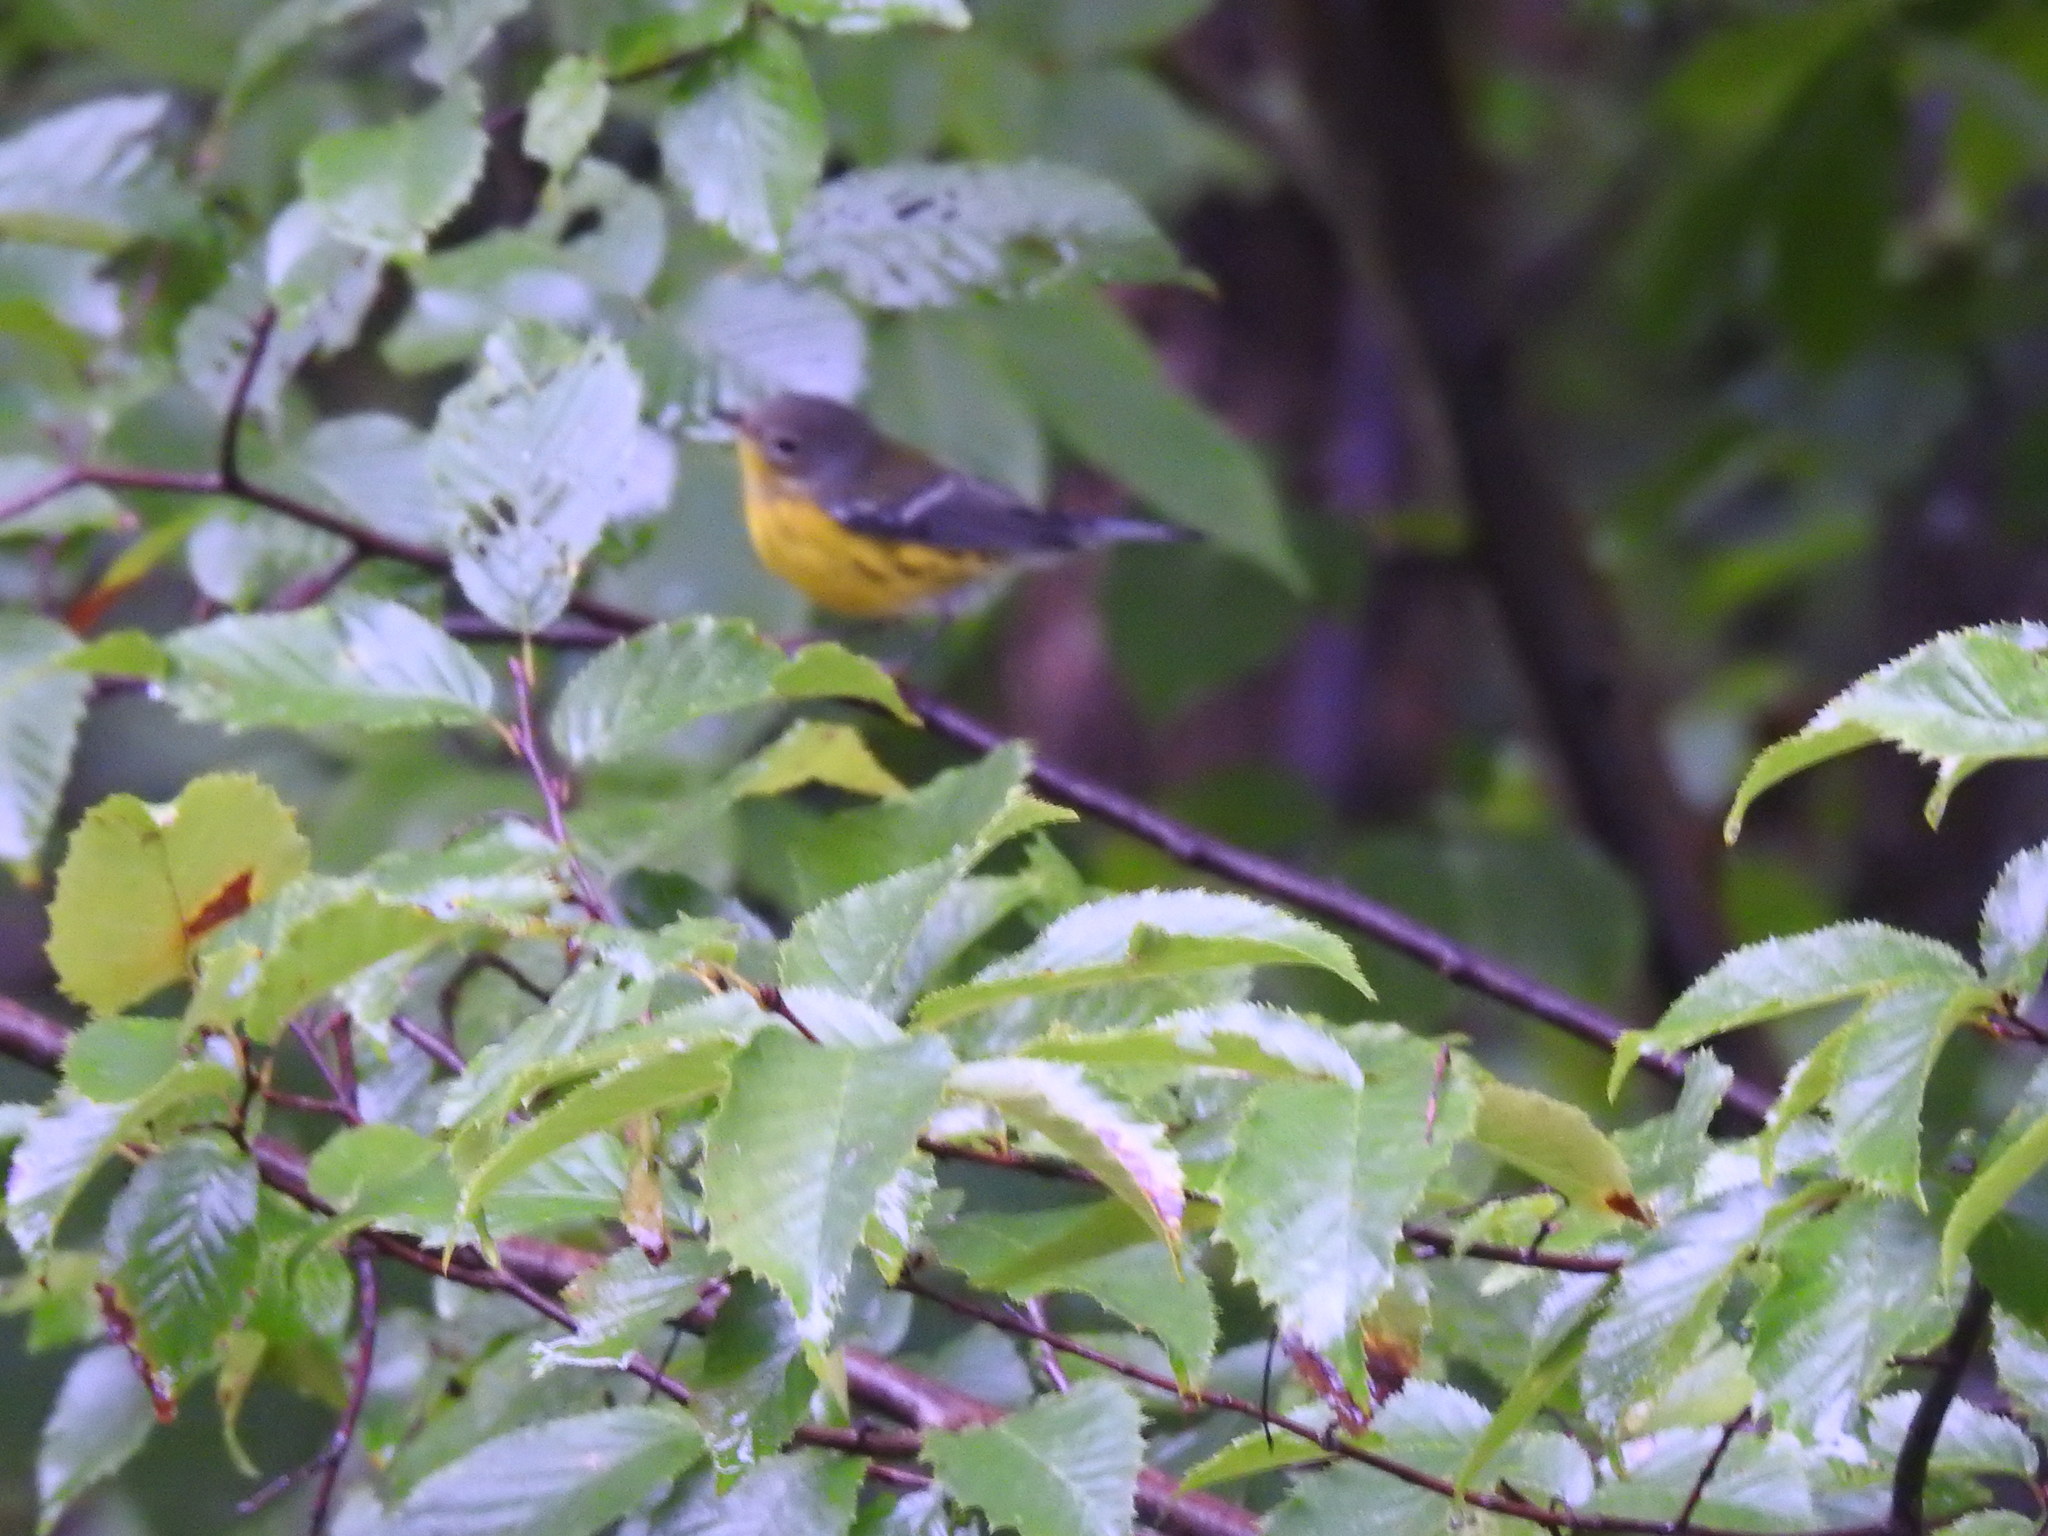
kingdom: Animalia
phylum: Chordata
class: Aves
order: Passeriformes
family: Parulidae
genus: Setophaga
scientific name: Setophaga magnolia
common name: Magnolia warbler
